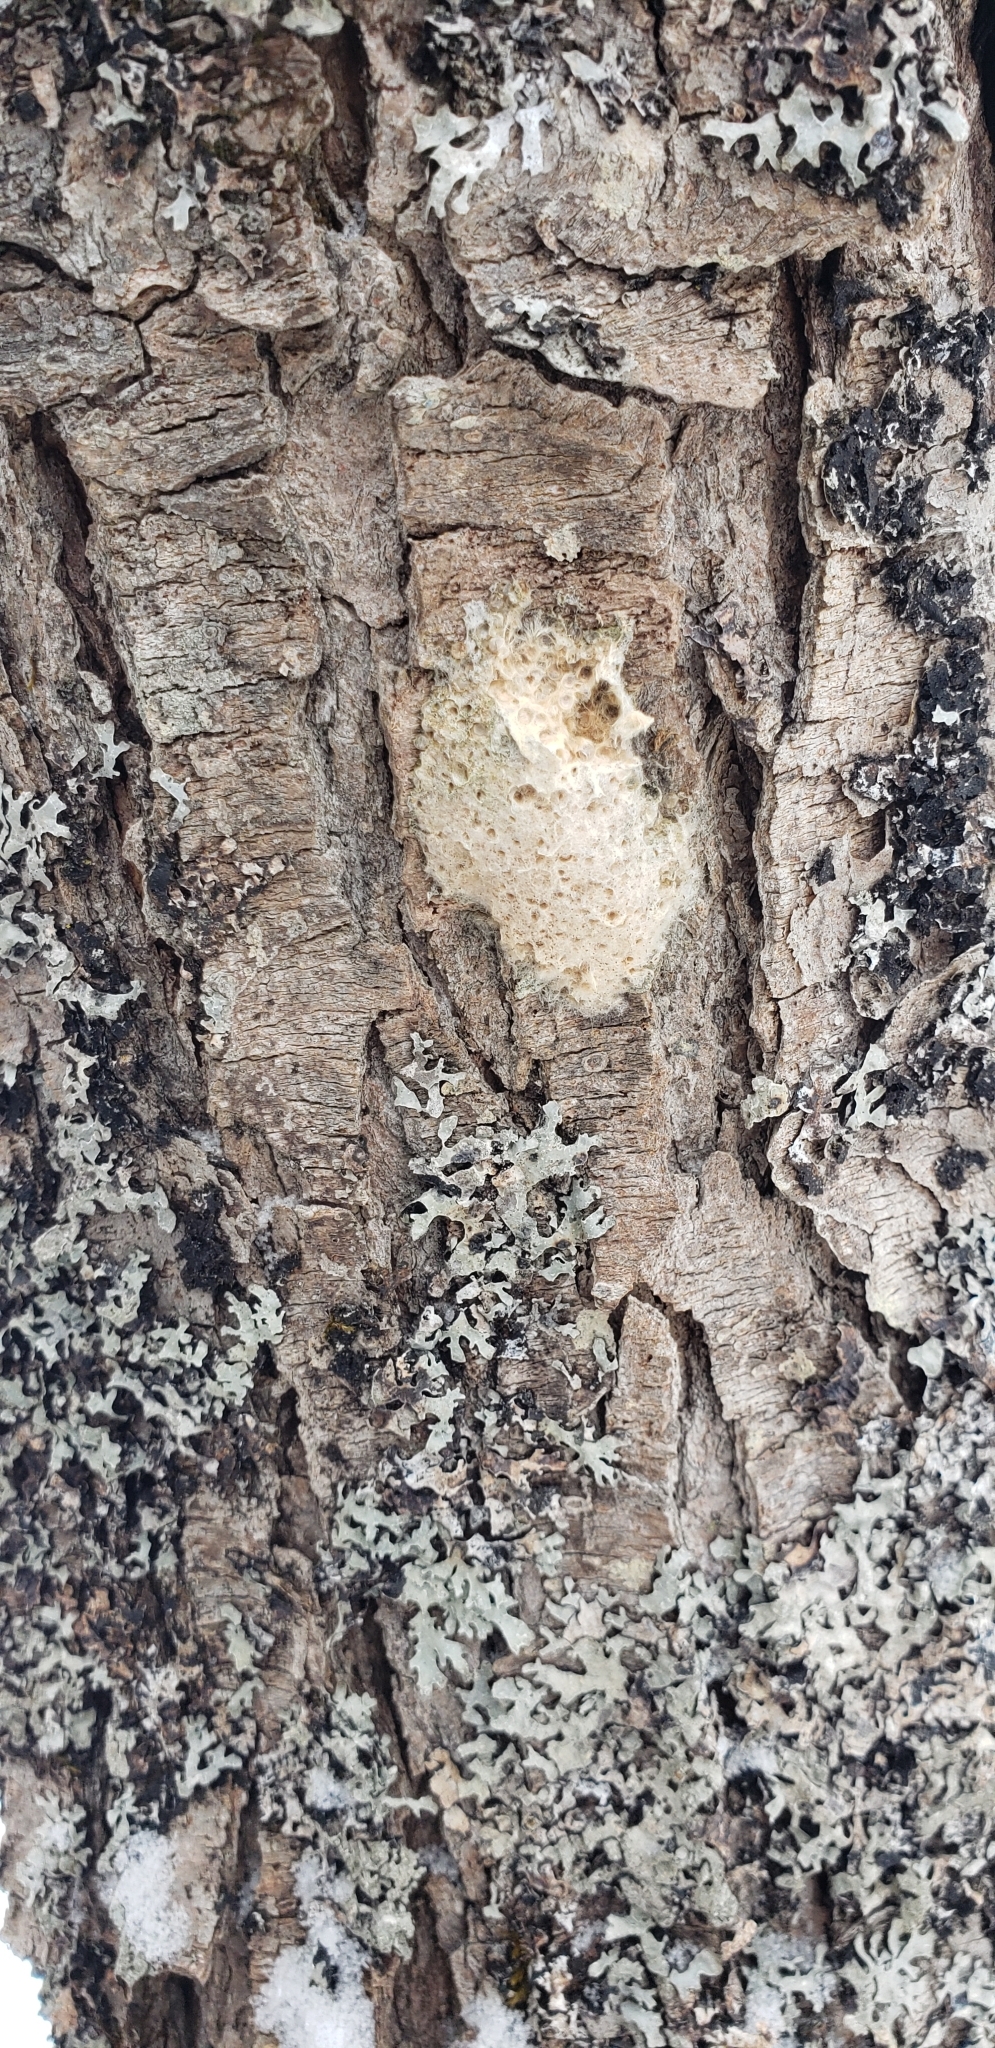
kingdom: Animalia
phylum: Arthropoda
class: Insecta
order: Lepidoptera
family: Erebidae
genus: Lymantria
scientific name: Lymantria dispar
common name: Gypsy moth
